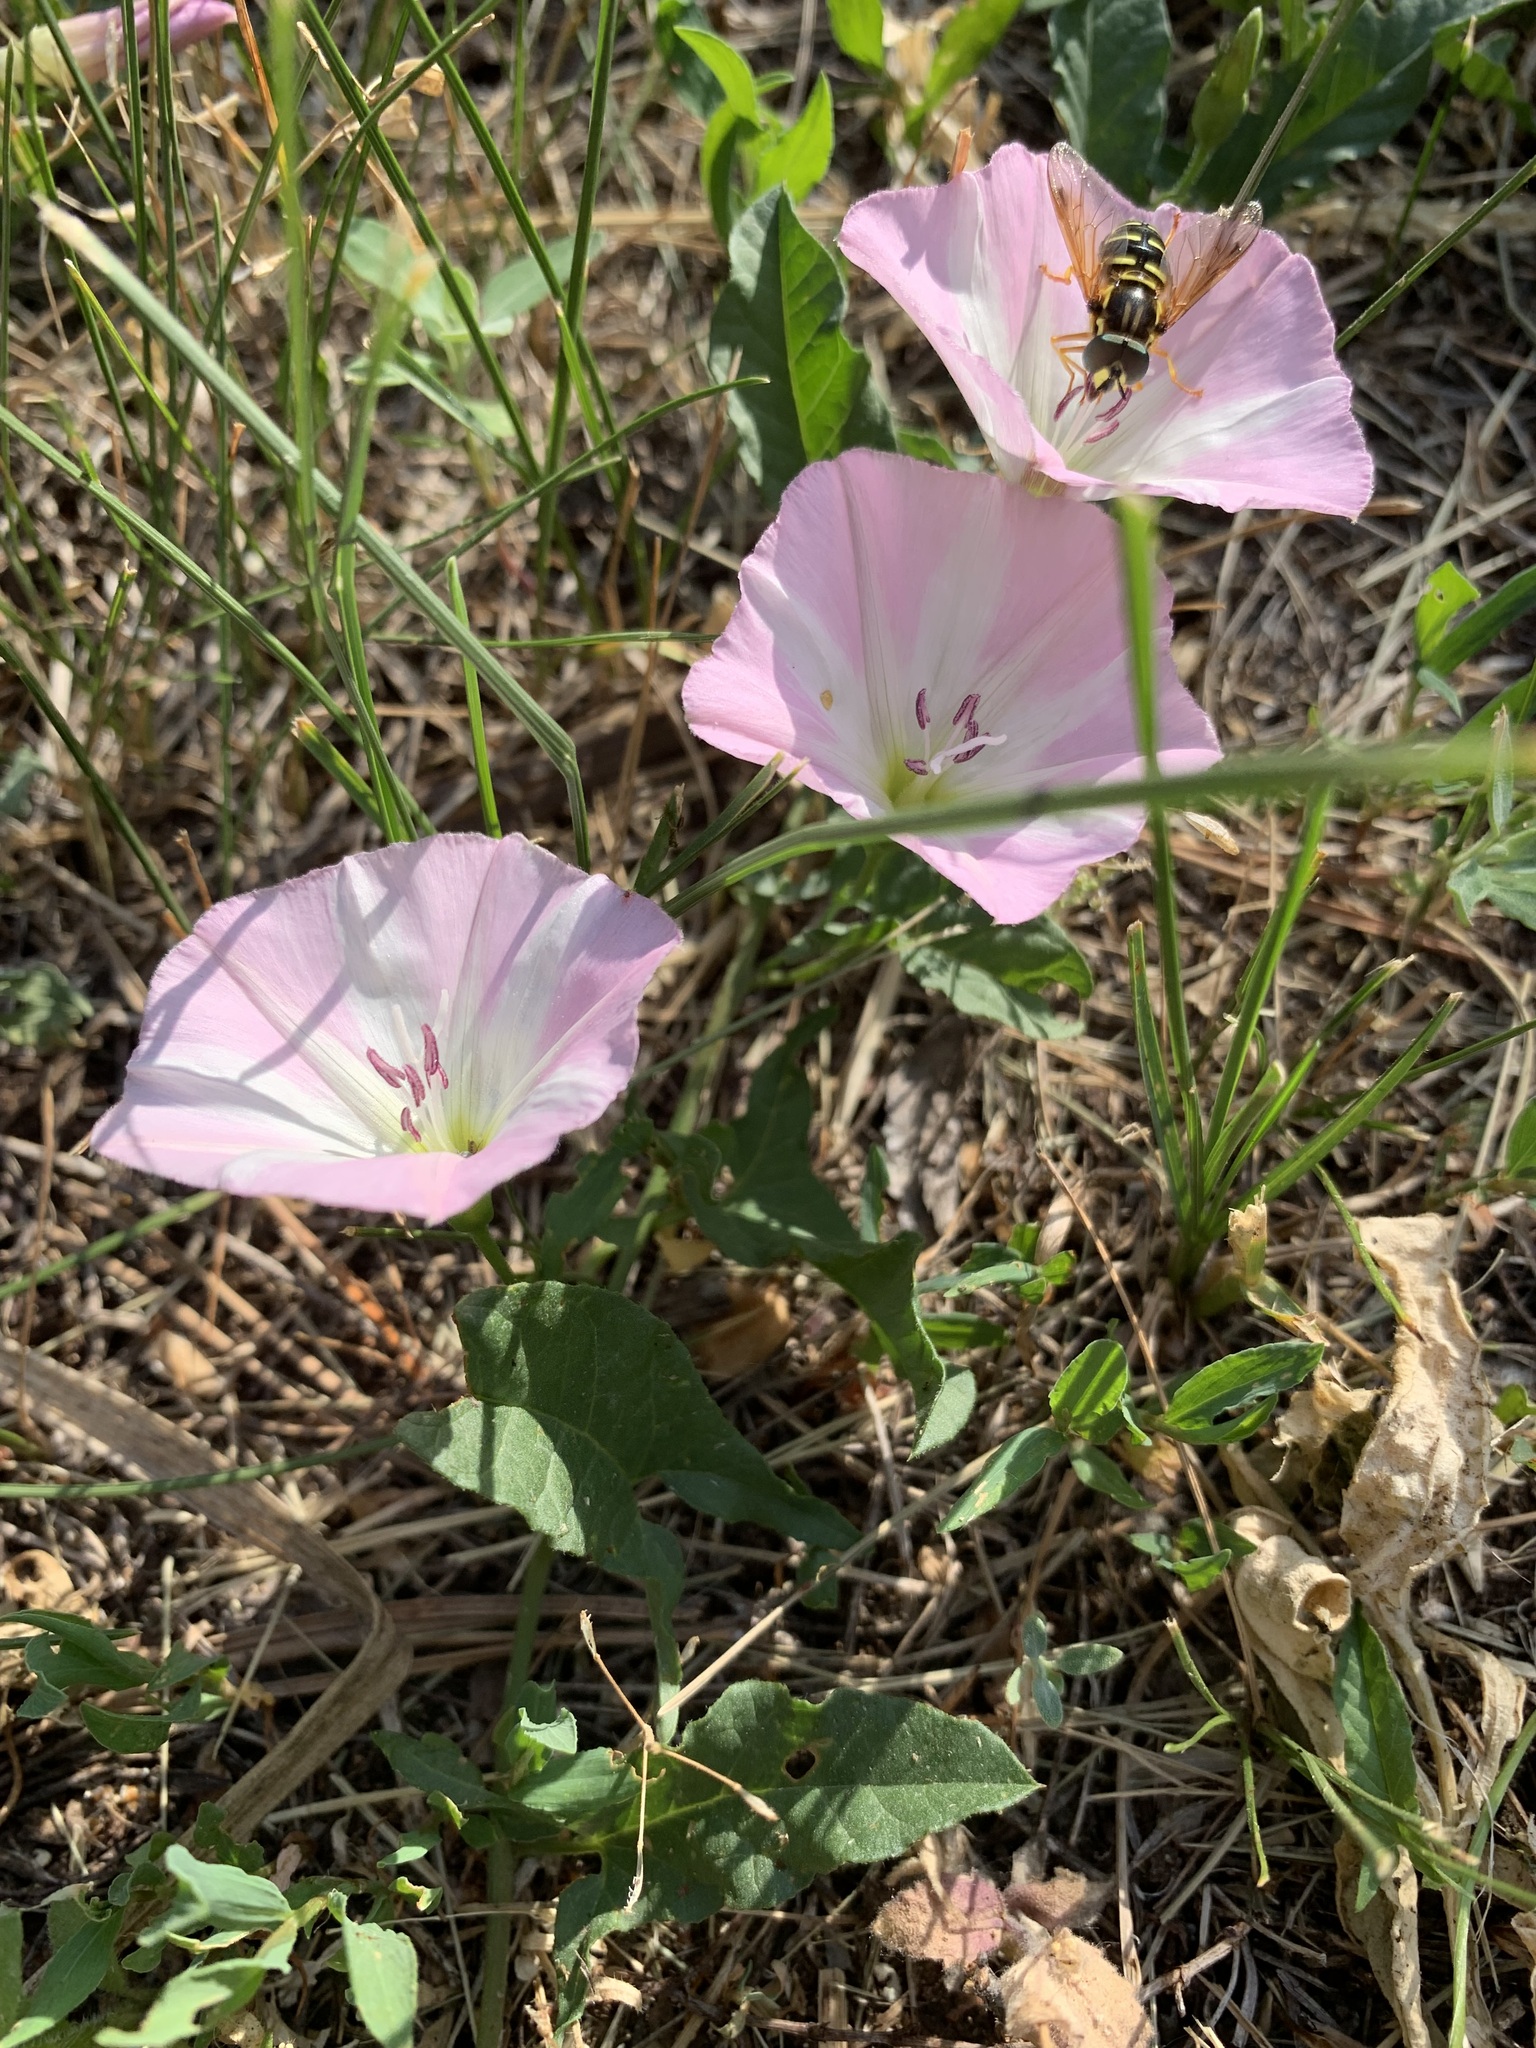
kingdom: Plantae
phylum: Tracheophyta
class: Magnoliopsida
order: Solanales
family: Convolvulaceae
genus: Convolvulus
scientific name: Convolvulus arvensis
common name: Field bindweed
